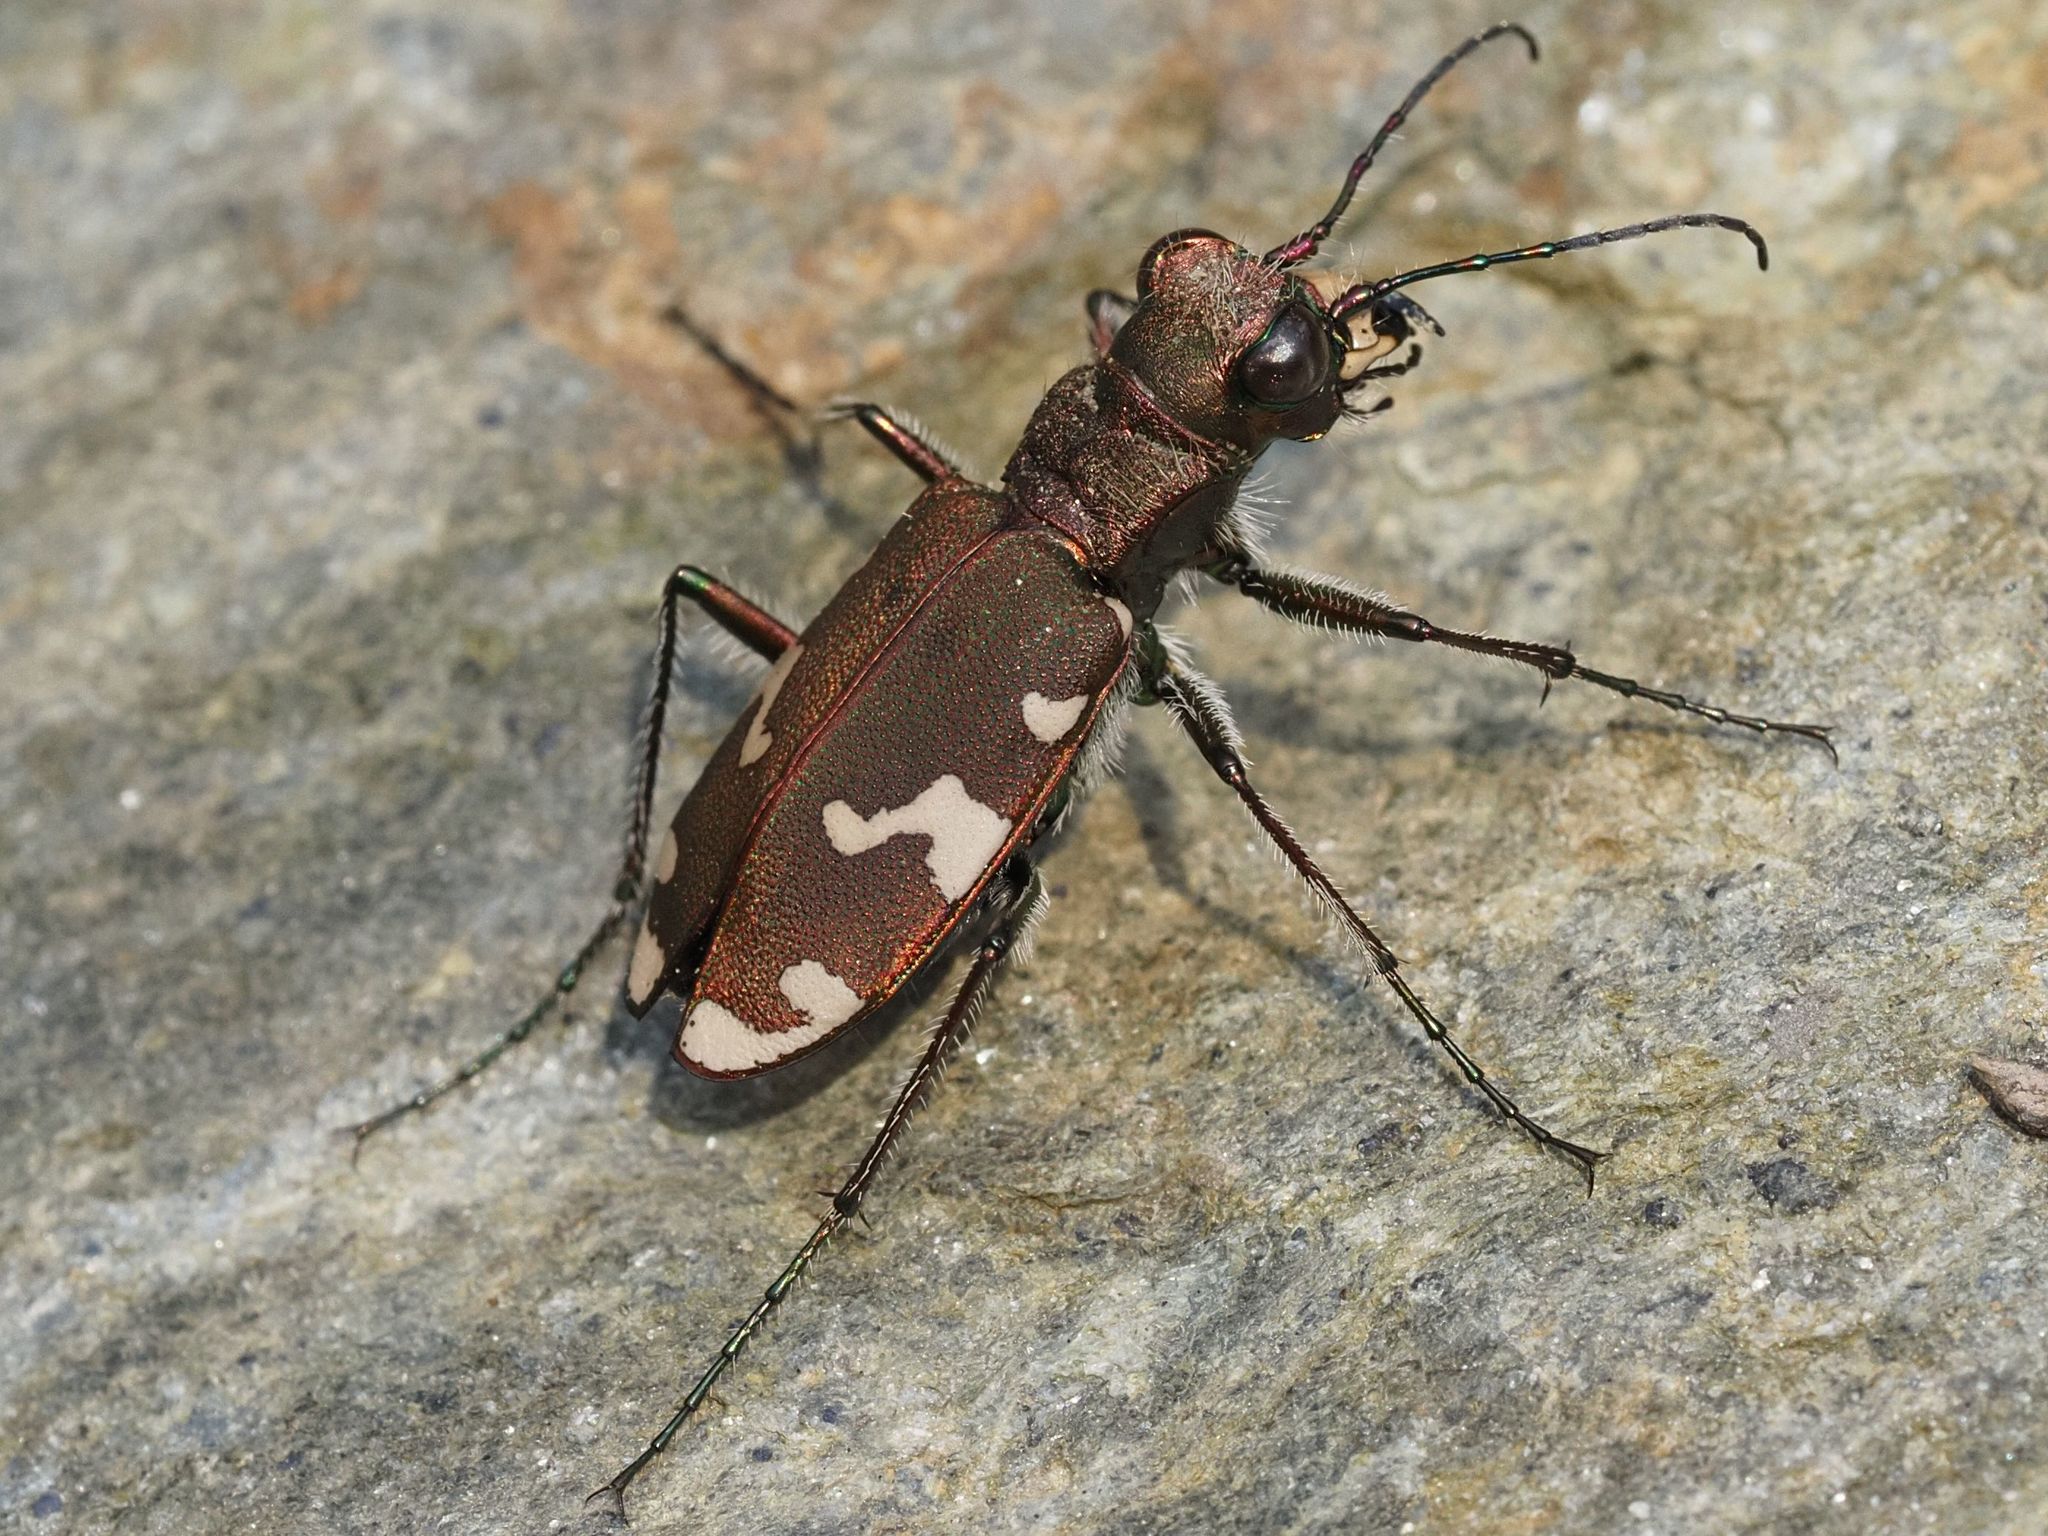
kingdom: Animalia
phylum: Arthropoda
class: Insecta
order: Coleoptera
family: Carabidae
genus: Cicindela
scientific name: Cicindela sylvicola
